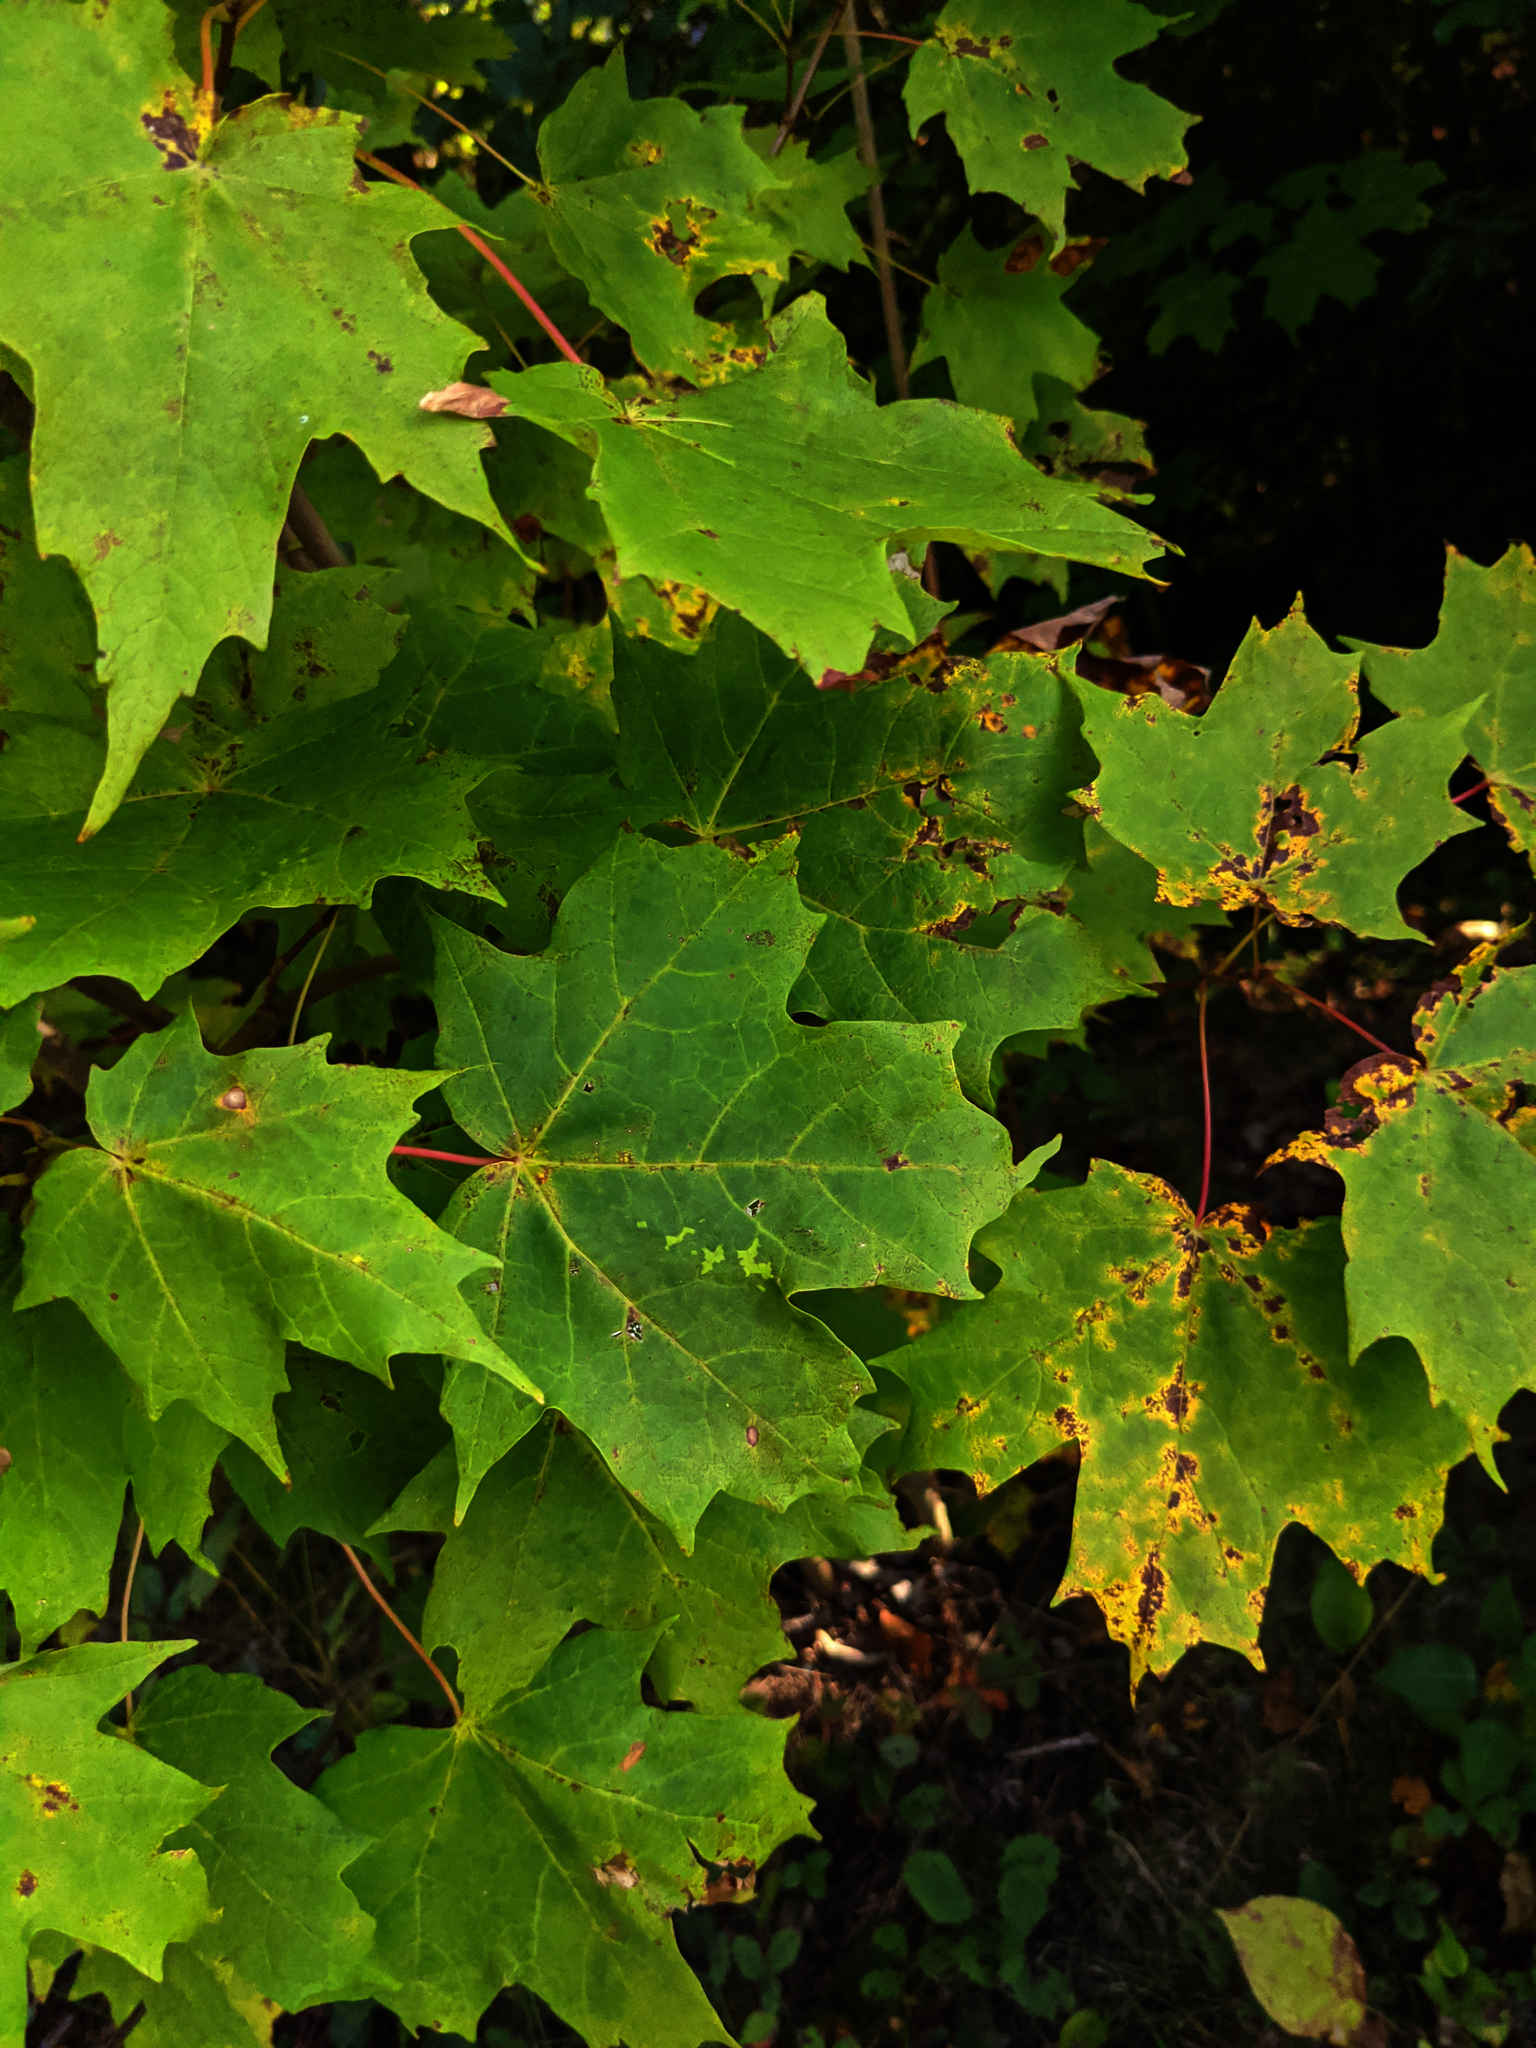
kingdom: Plantae
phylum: Tracheophyta
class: Magnoliopsida
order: Sapindales
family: Sapindaceae
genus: Acer
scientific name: Acer saccharum
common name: Sugar maple
